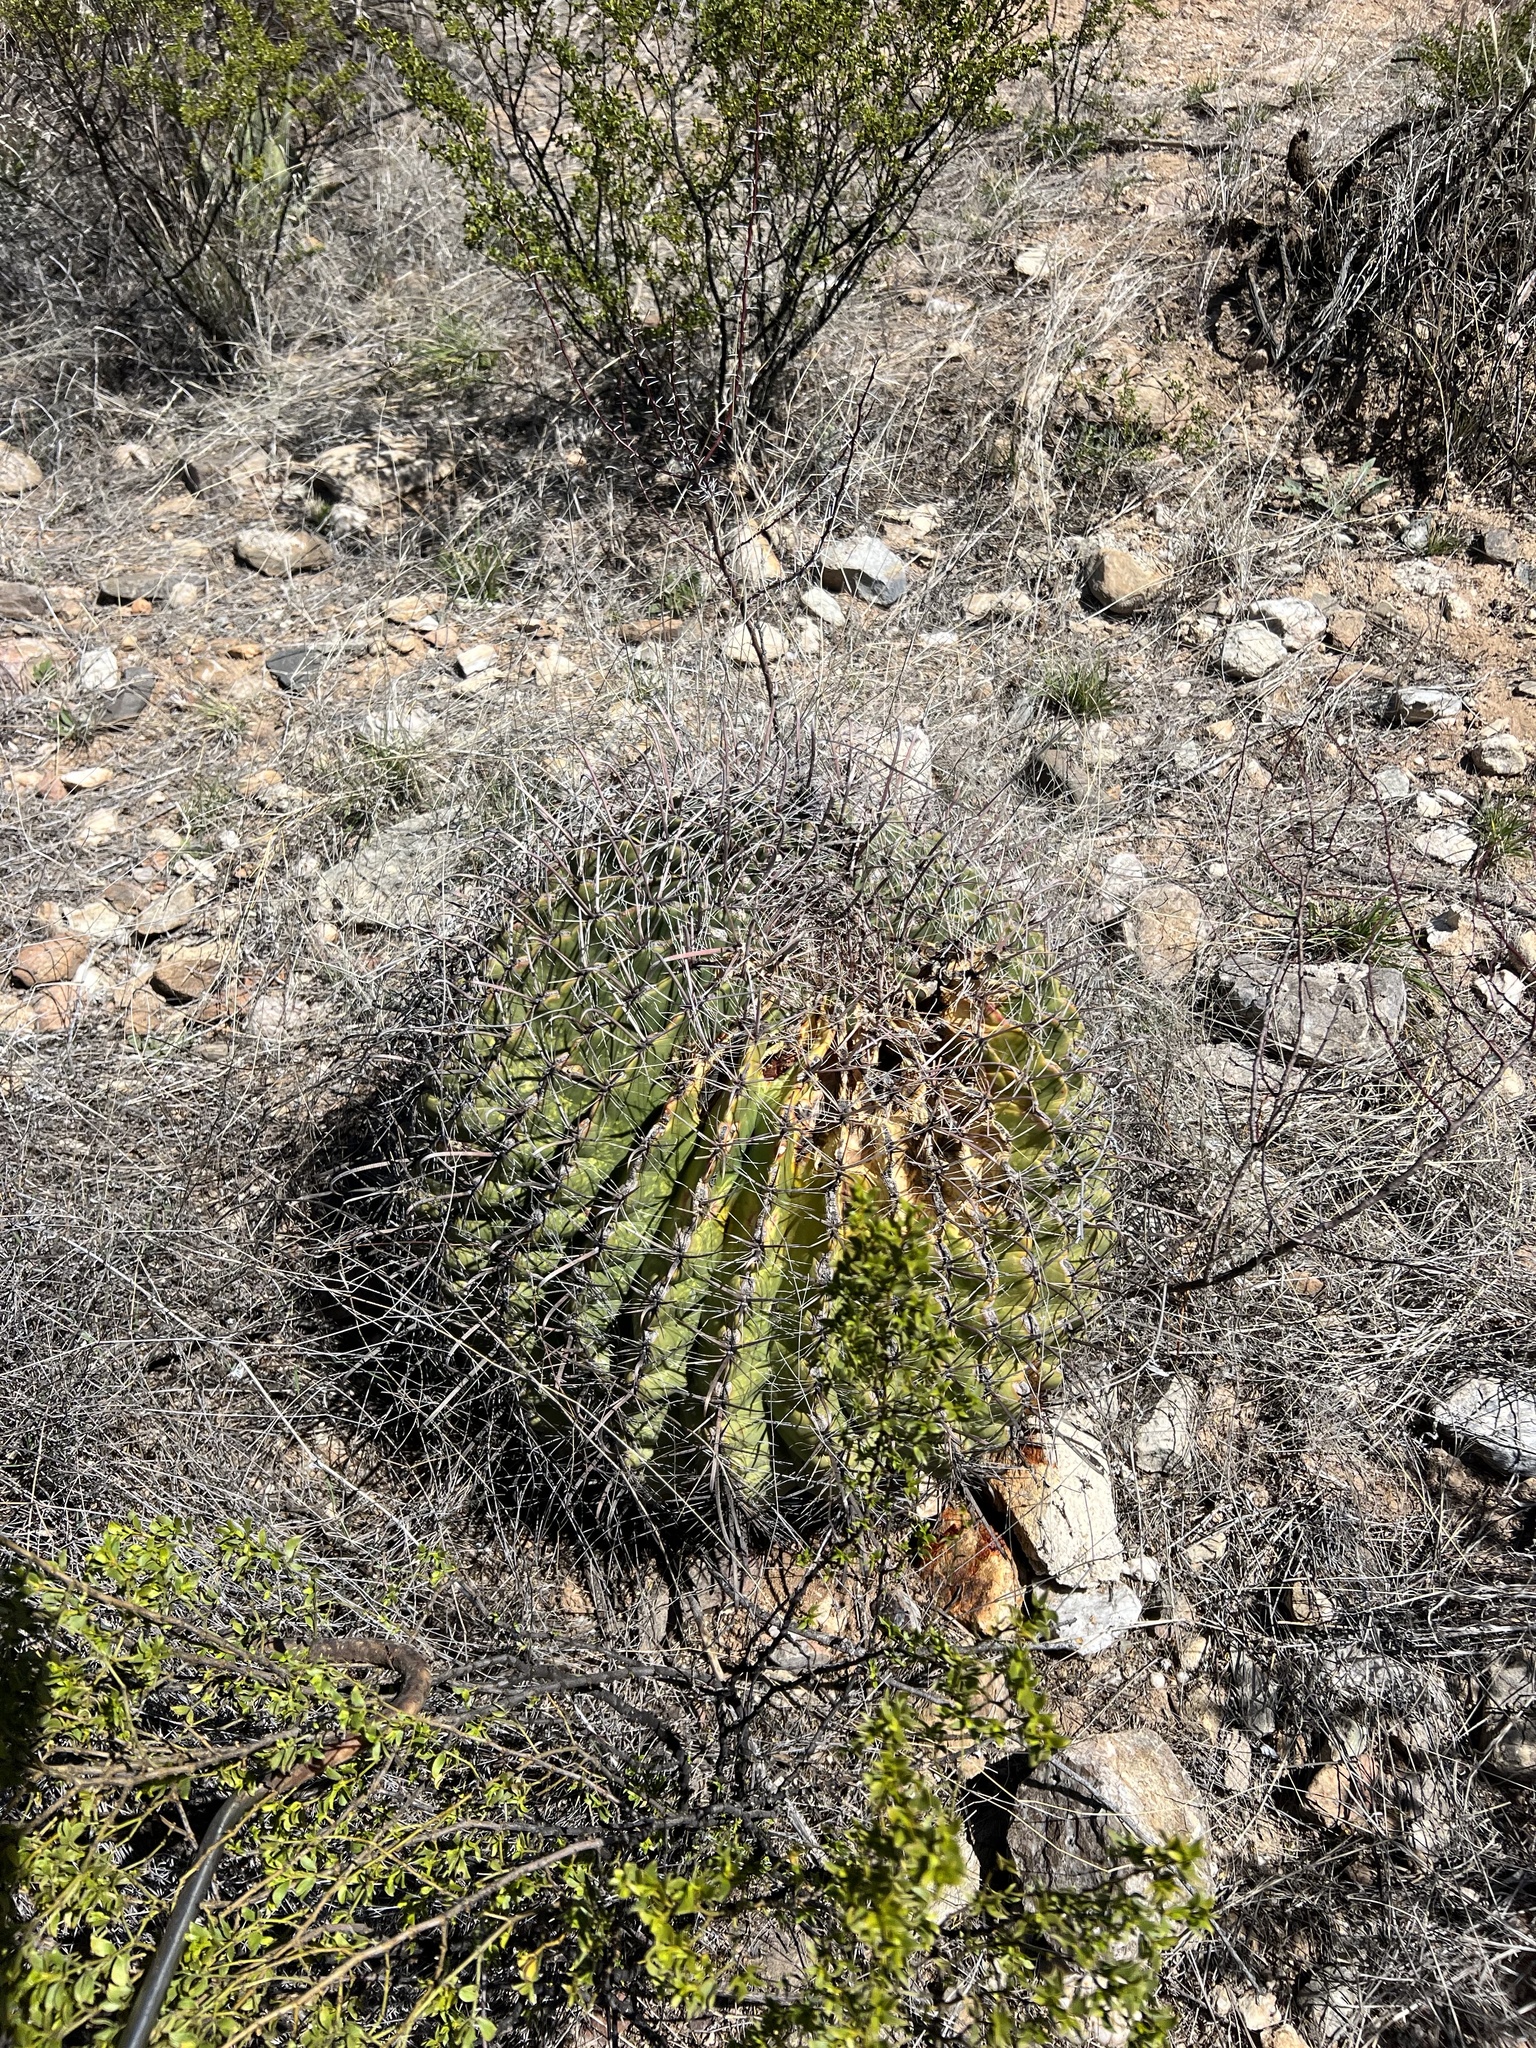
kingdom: Plantae
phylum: Tracheophyta
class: Magnoliopsida
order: Caryophyllales
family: Cactaceae
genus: Ferocactus
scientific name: Ferocactus wislizeni
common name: Candy barrel cactus
